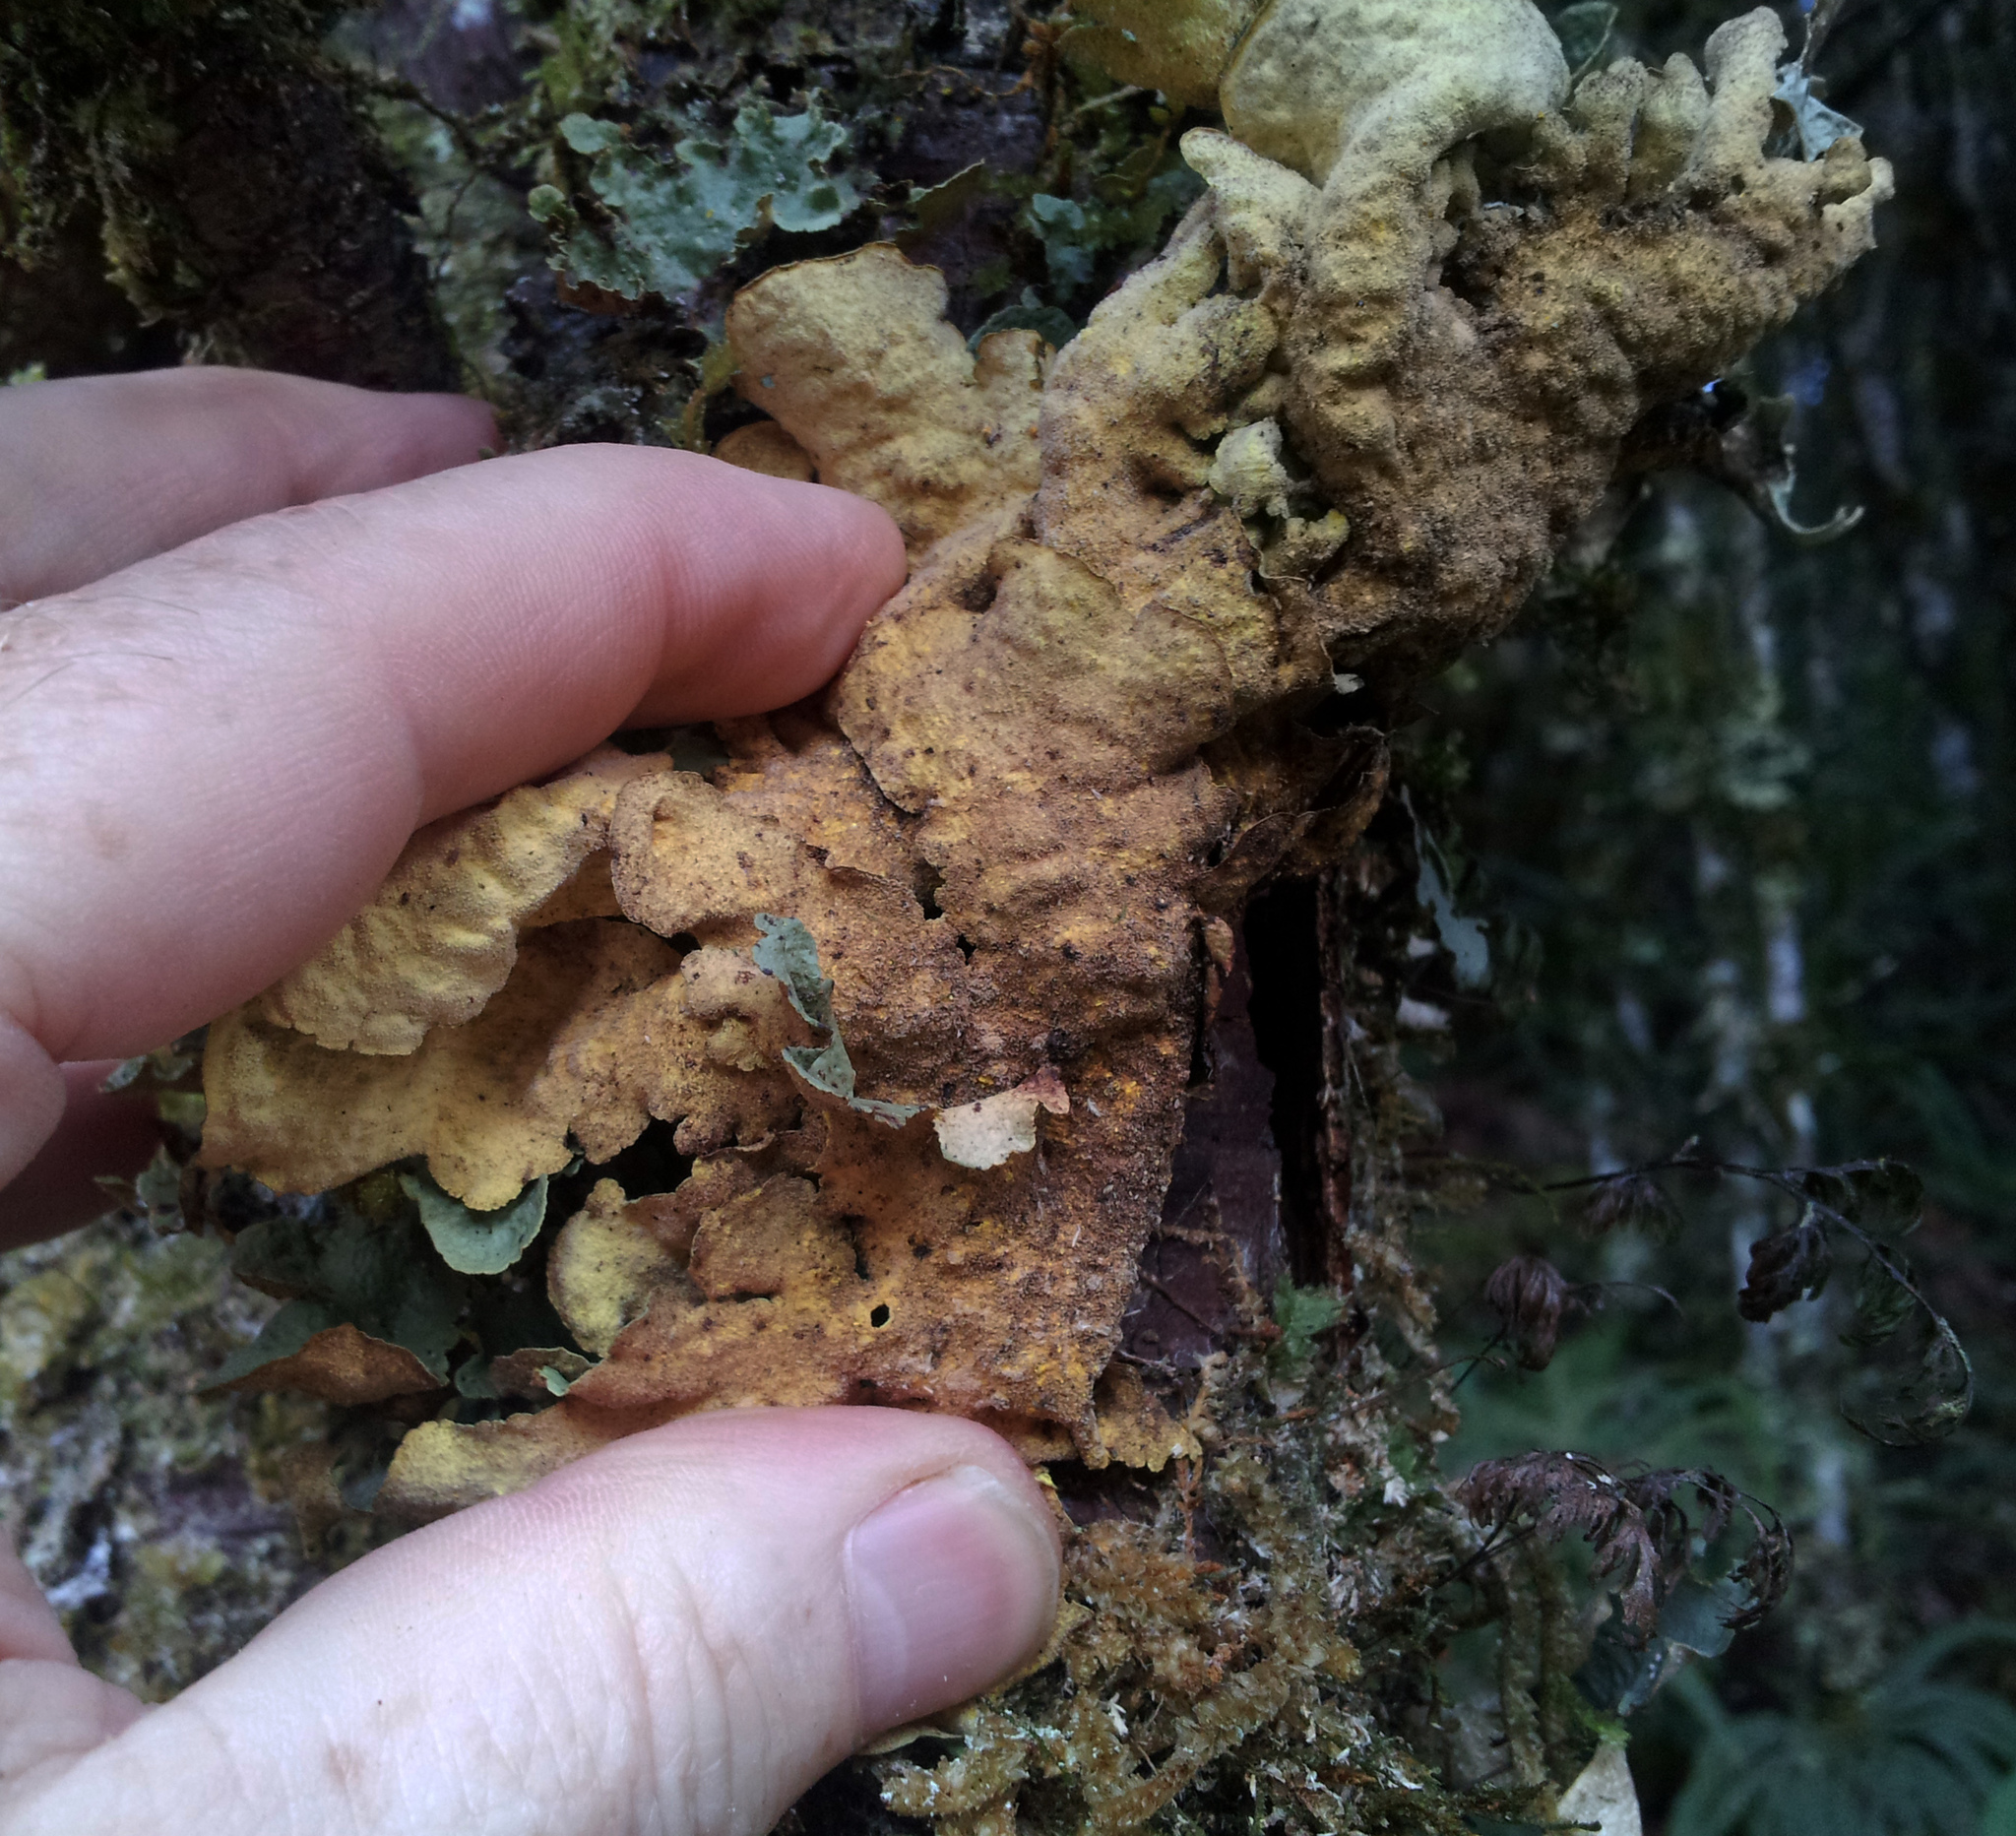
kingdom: Fungi
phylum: Ascomycota
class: Lecanoromycetes
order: Peltigerales
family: Lobariaceae
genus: Yarrumia
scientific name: Yarrumia coronata
